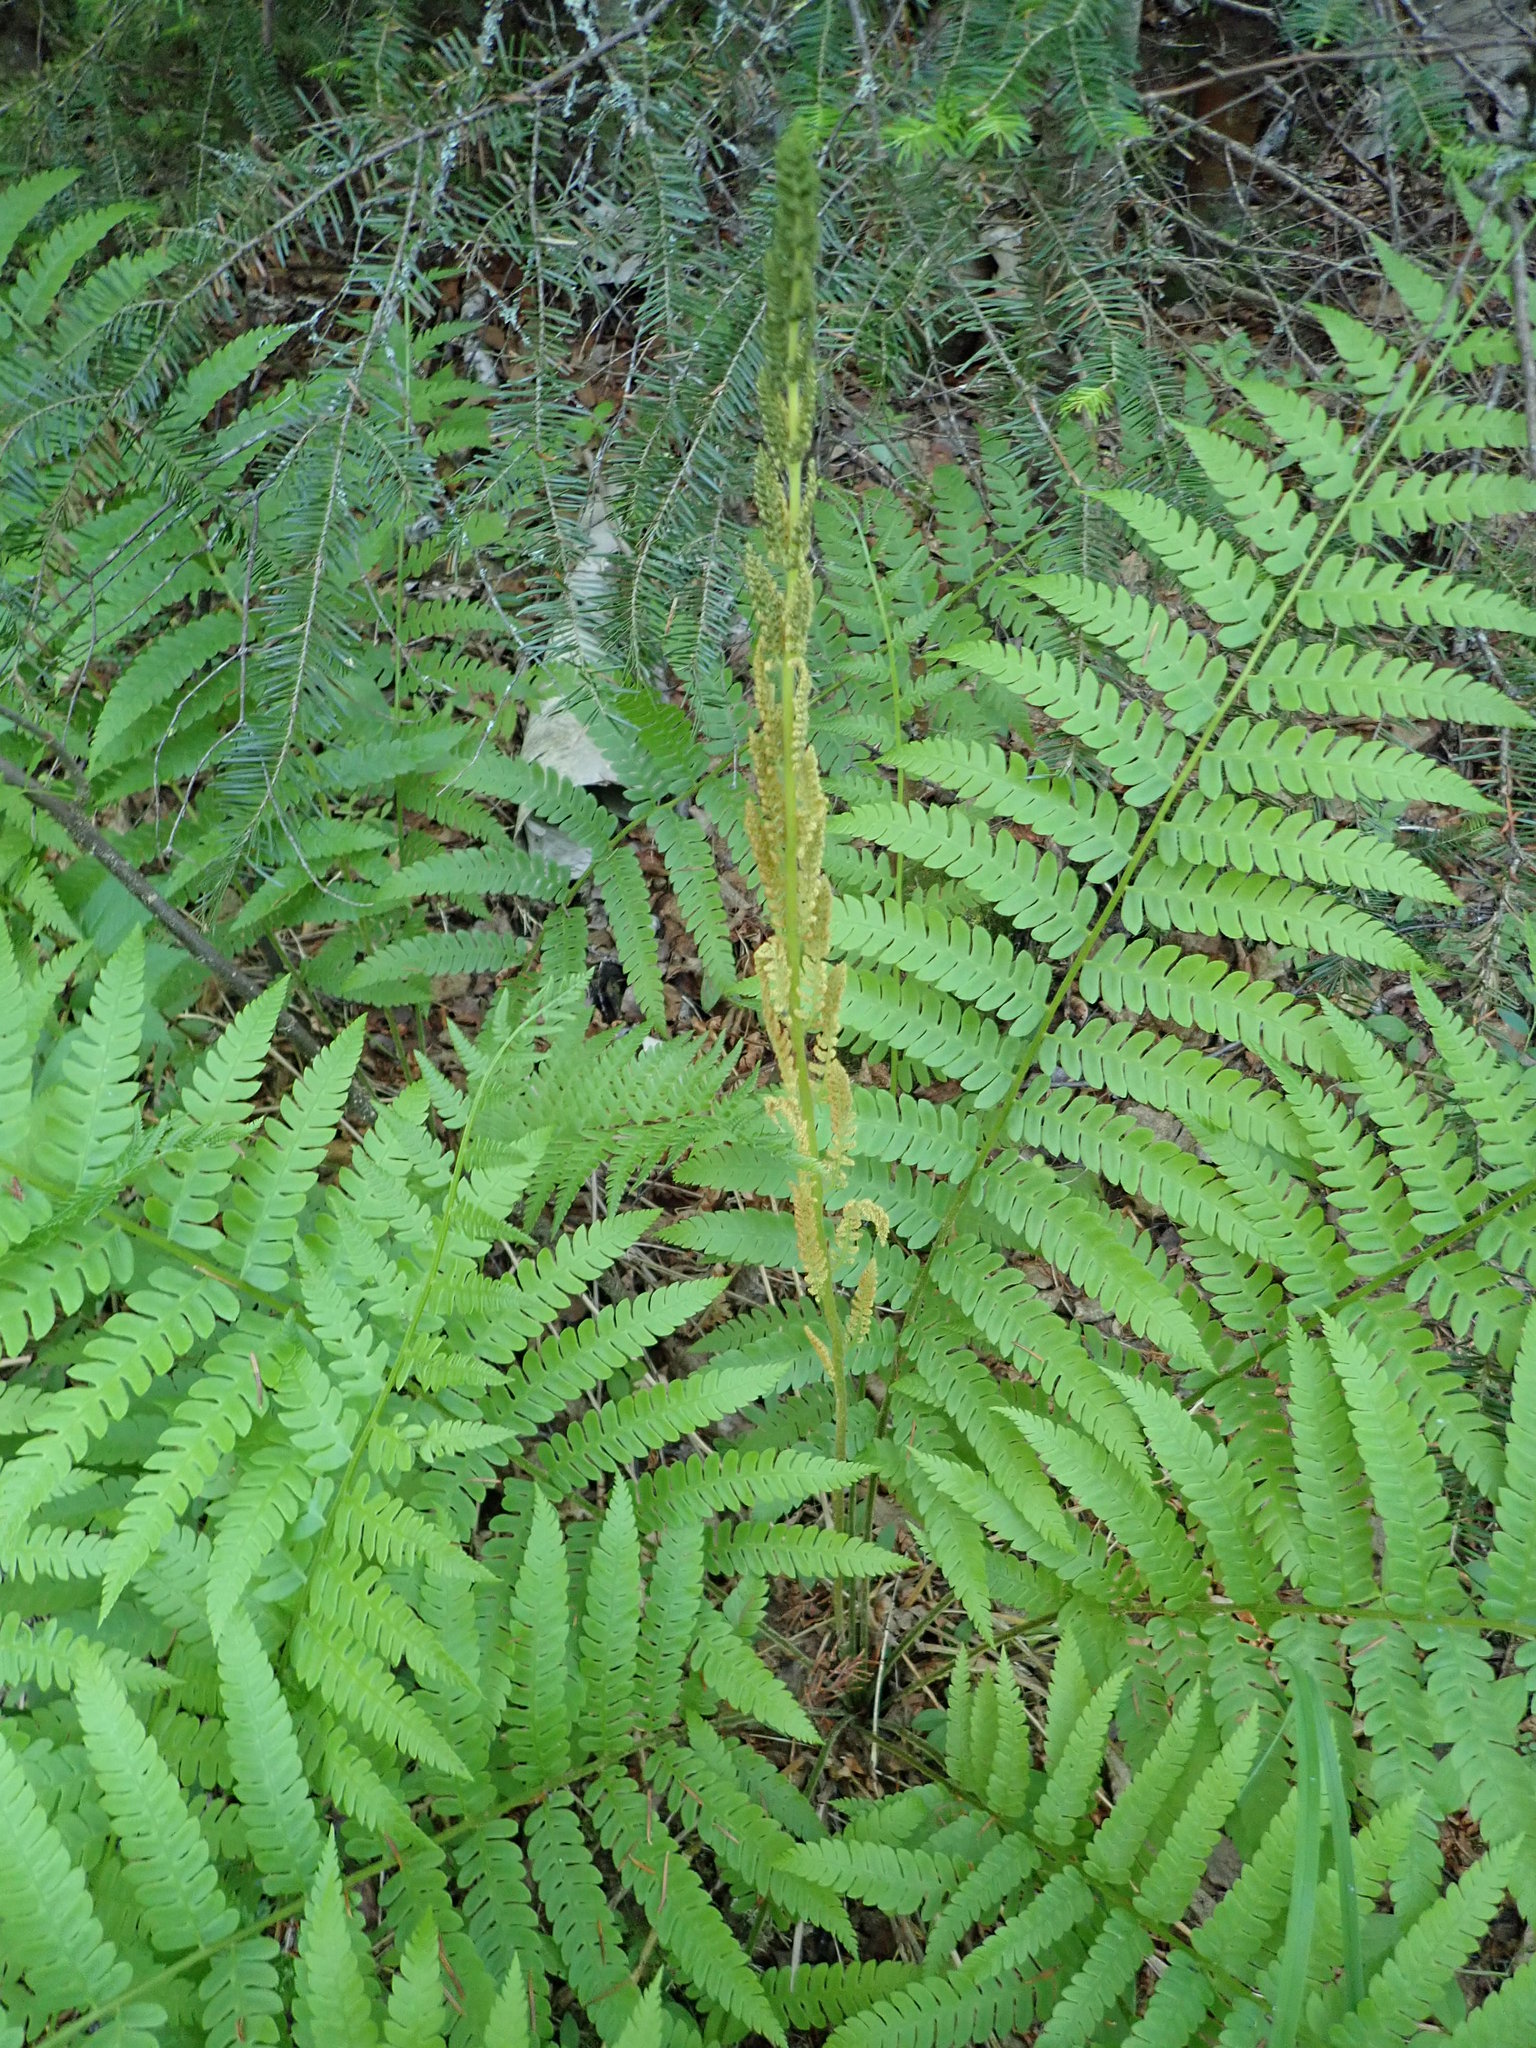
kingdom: Plantae
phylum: Tracheophyta
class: Polypodiopsida
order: Osmundales
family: Osmundaceae
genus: Osmundastrum
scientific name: Osmundastrum cinnamomeum
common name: Cinnamon fern
